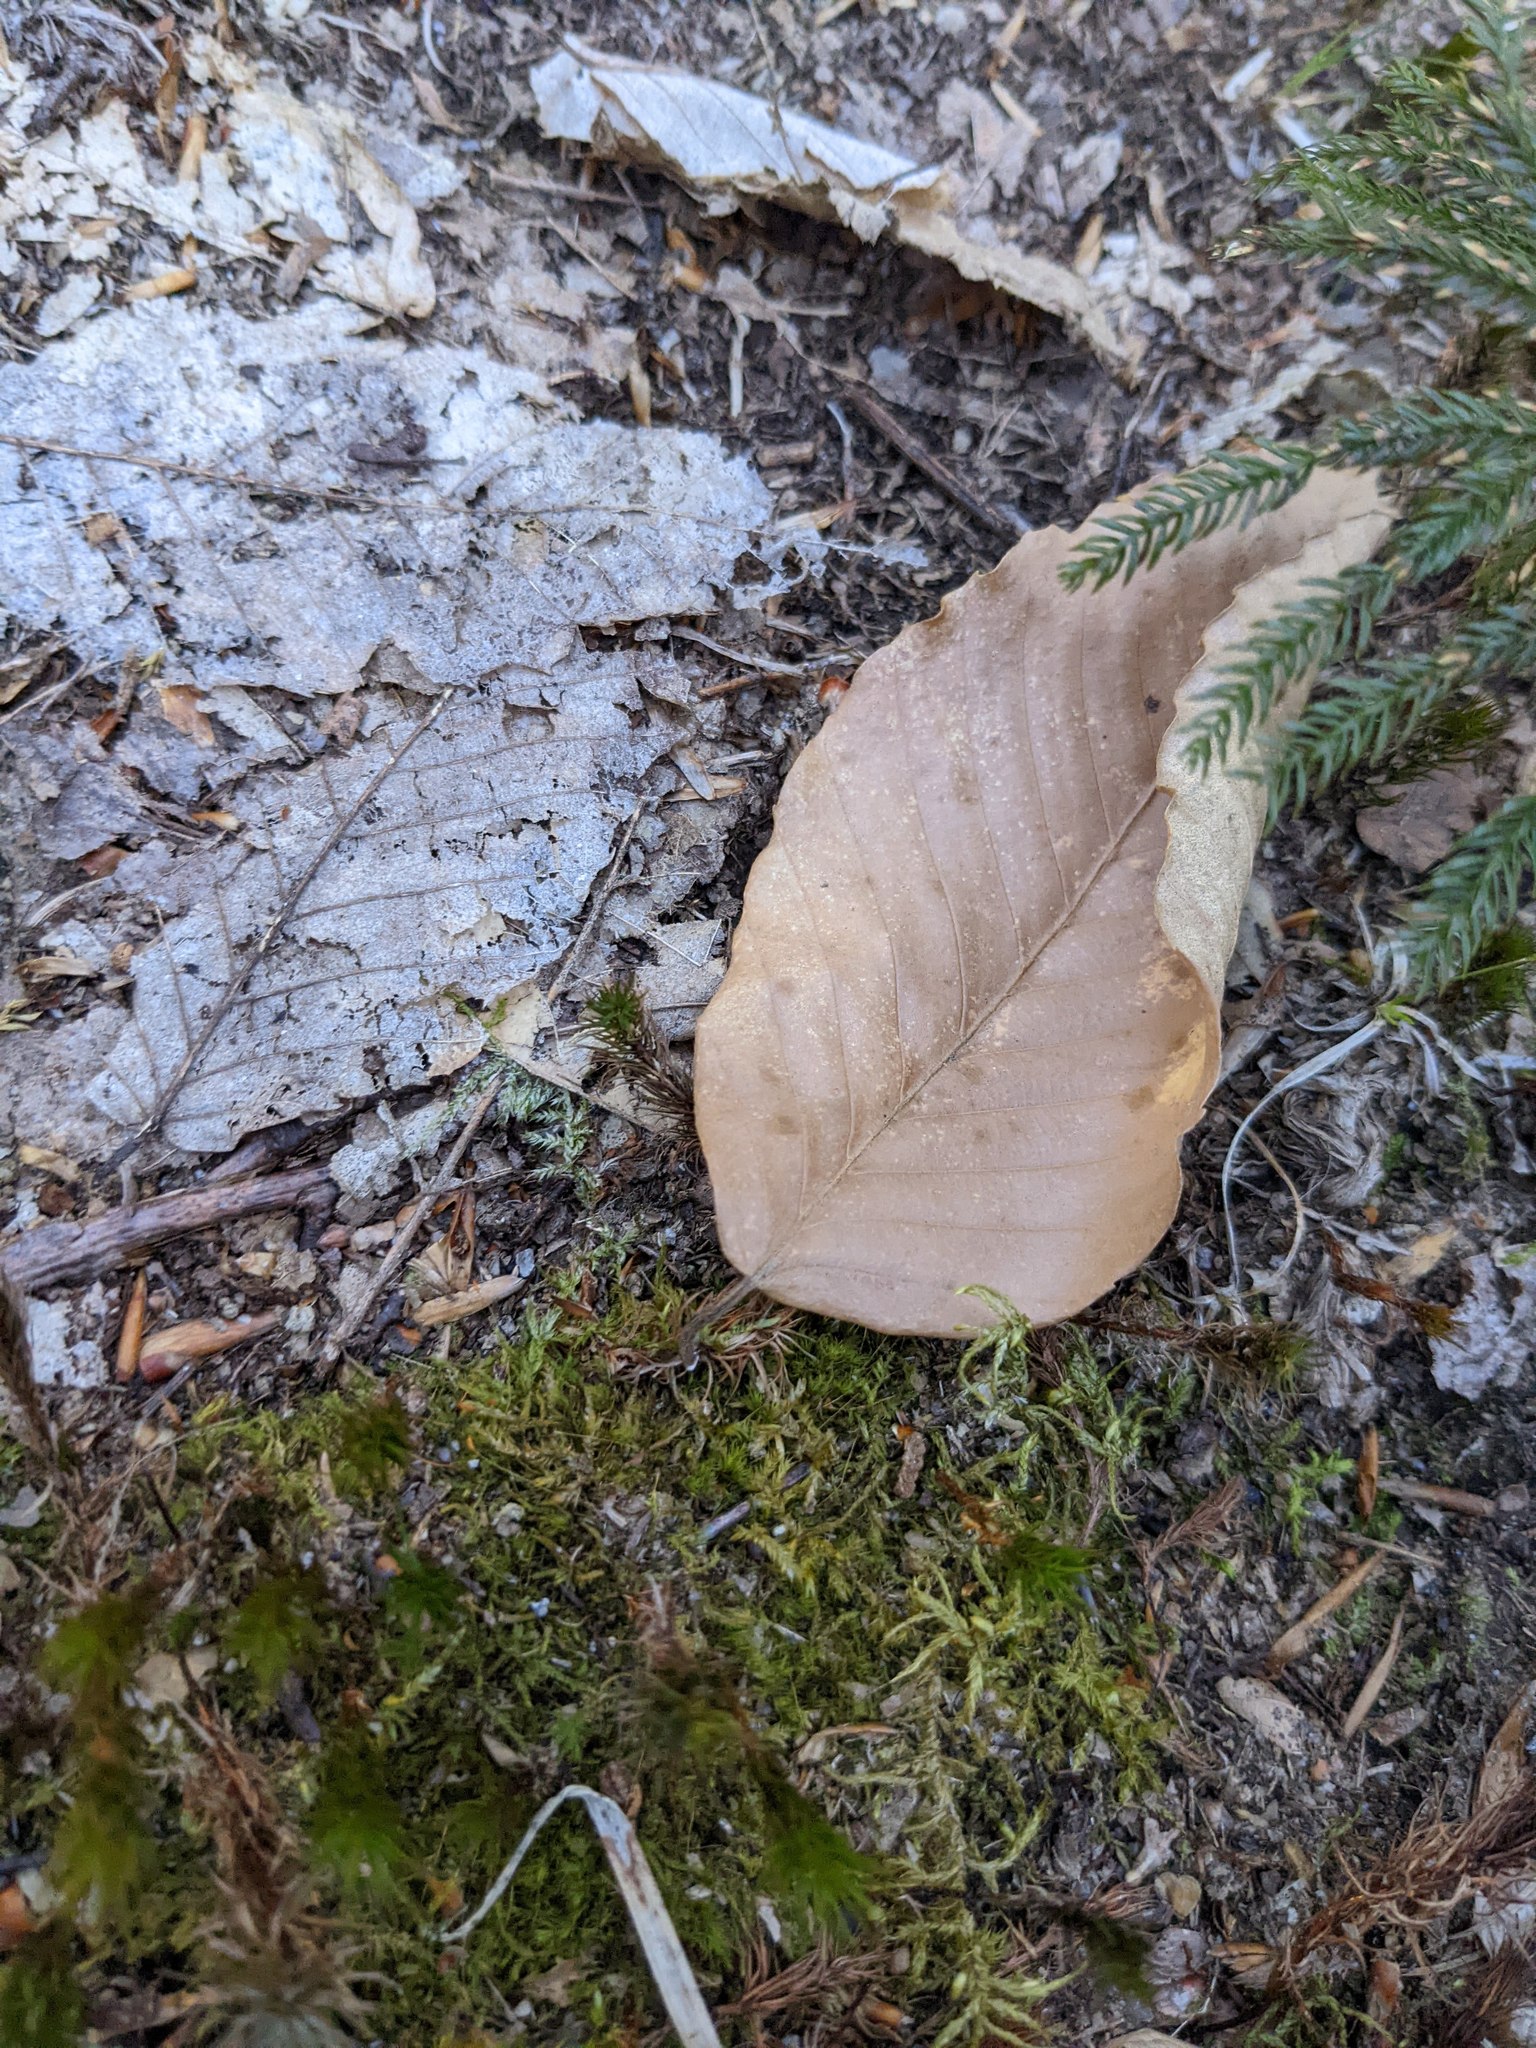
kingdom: Plantae
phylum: Tracheophyta
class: Magnoliopsida
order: Fagales
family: Fagaceae
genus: Fagus
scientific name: Fagus grandifolia
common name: American beech
